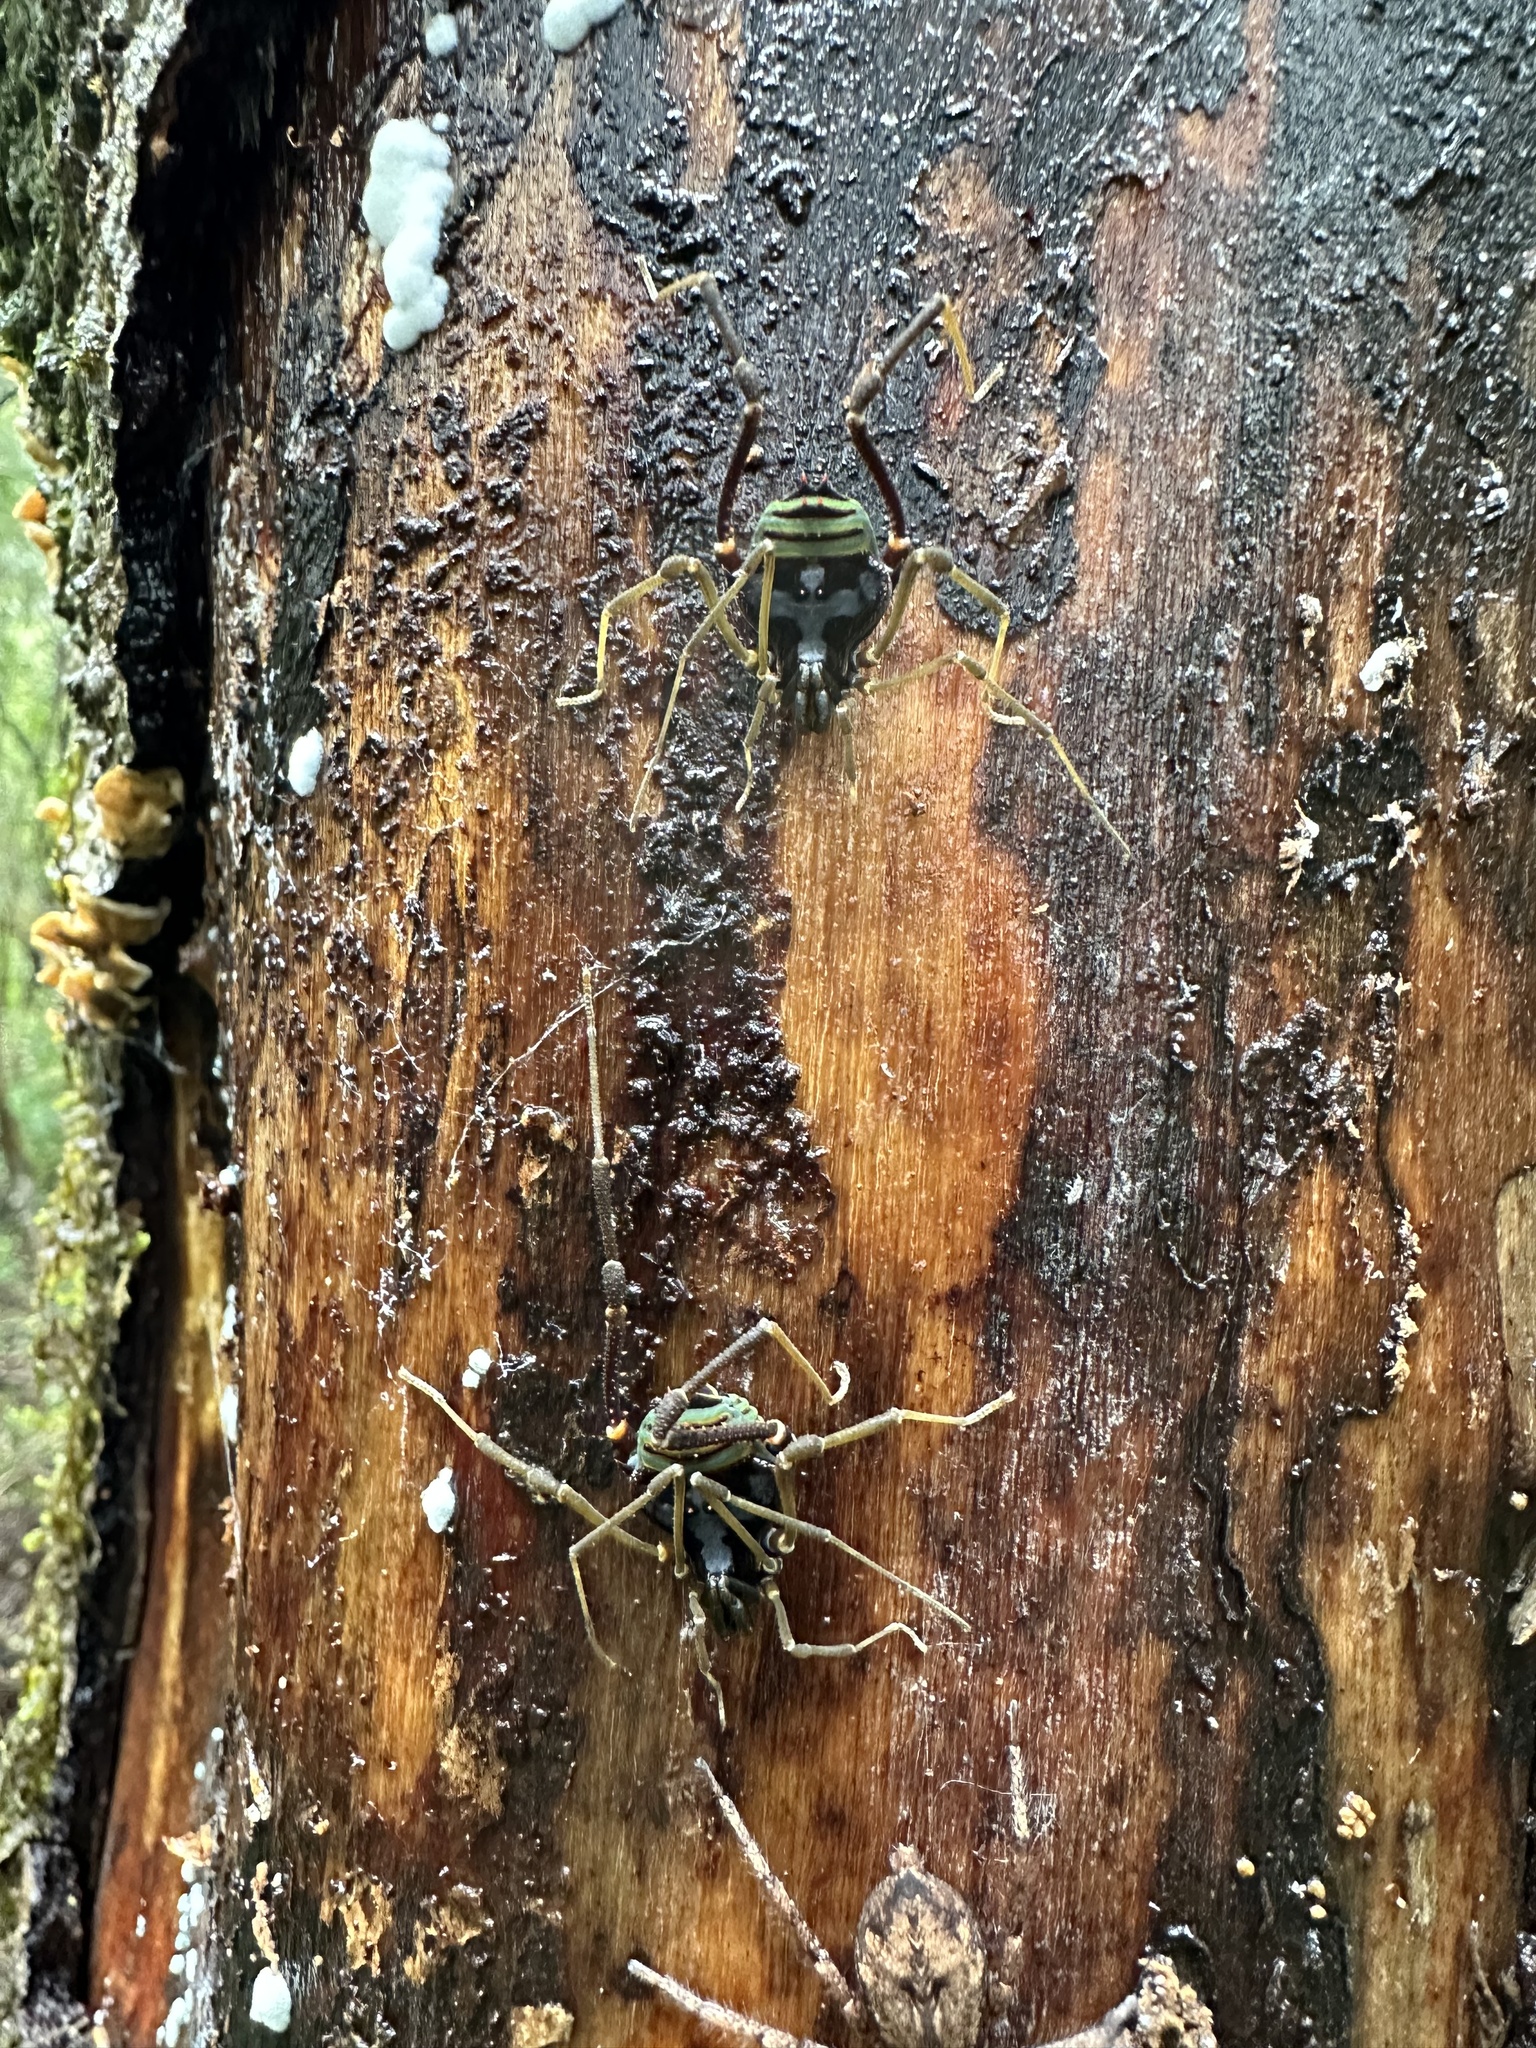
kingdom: Animalia
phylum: Arthropoda
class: Arachnida
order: Opiliones
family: Gonyleptidae
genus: Sadocus
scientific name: Sadocus asperatus
